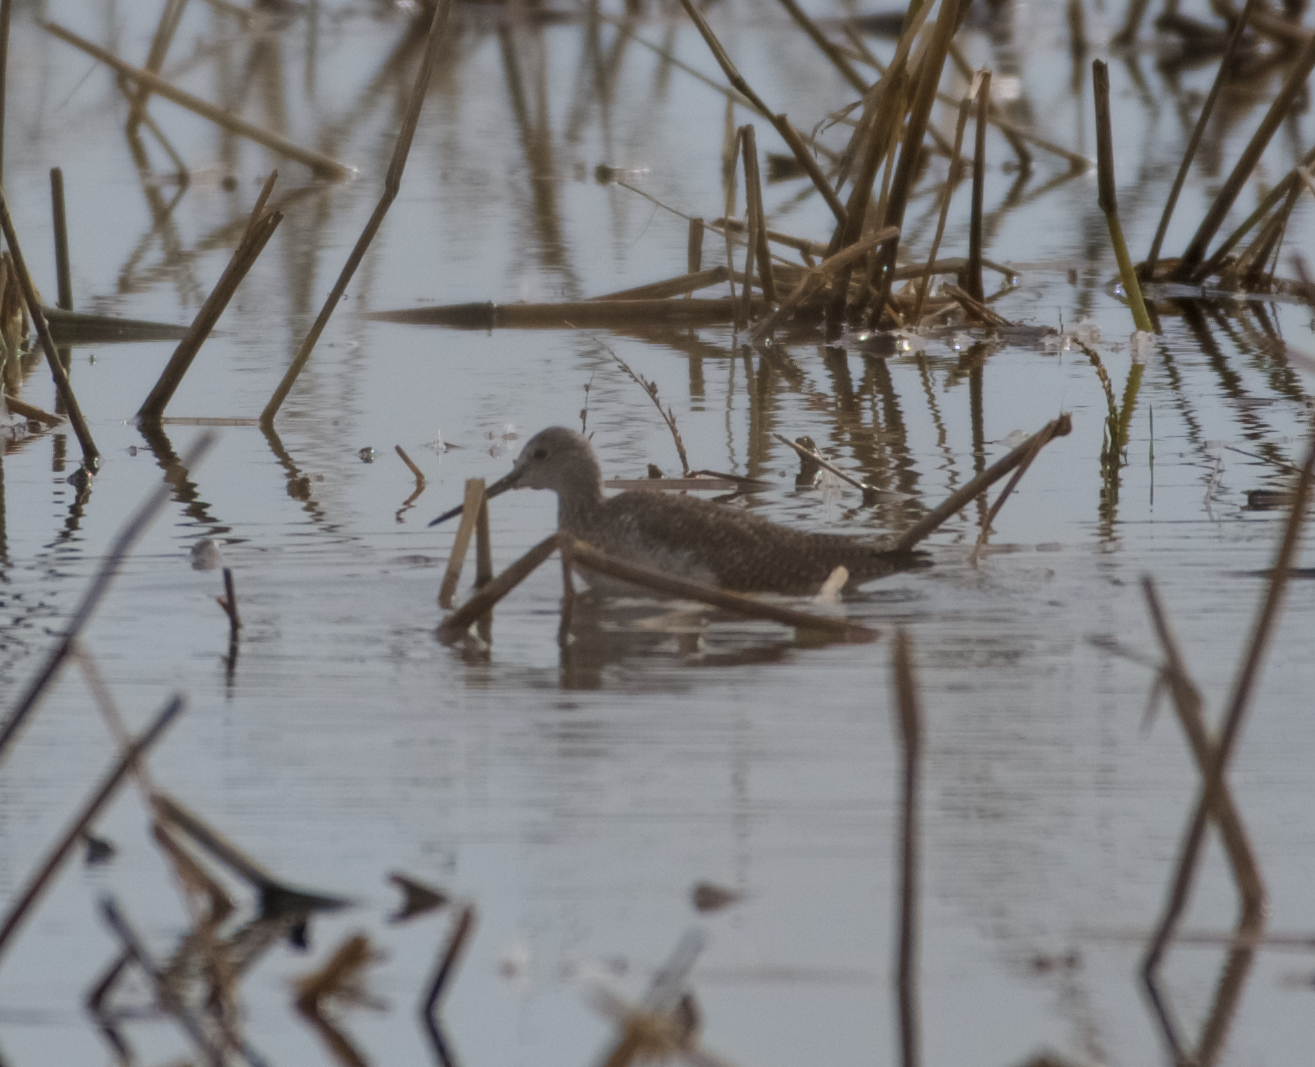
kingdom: Animalia
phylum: Chordata
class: Aves
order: Charadriiformes
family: Scolopacidae
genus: Tringa
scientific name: Tringa melanoleuca
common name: Greater yellowlegs
